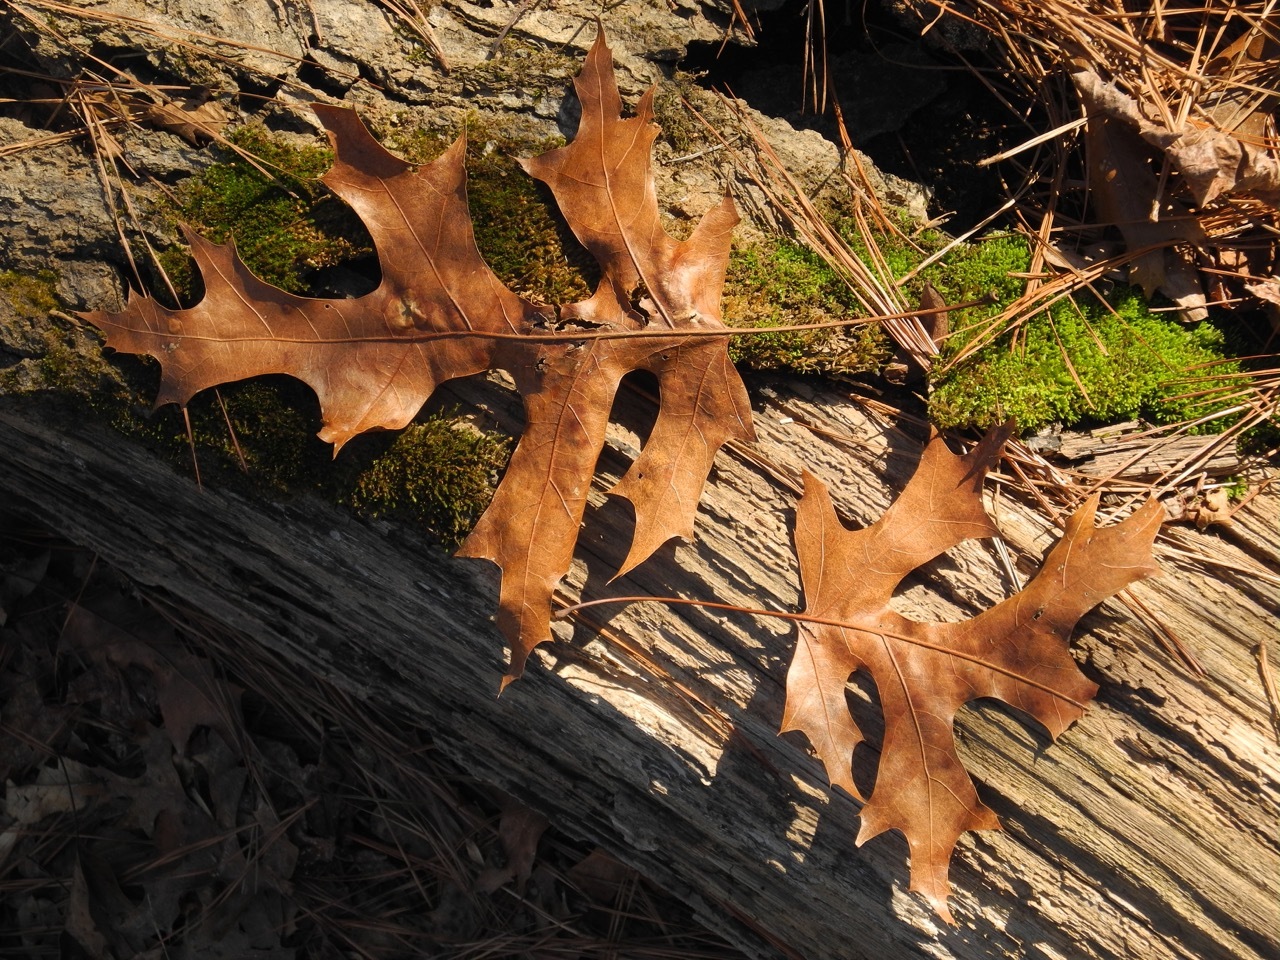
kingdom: Plantae
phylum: Tracheophyta
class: Magnoliopsida
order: Fagales
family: Fagaceae
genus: Quercus
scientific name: Quercus coccinea
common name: Scarlet oak
